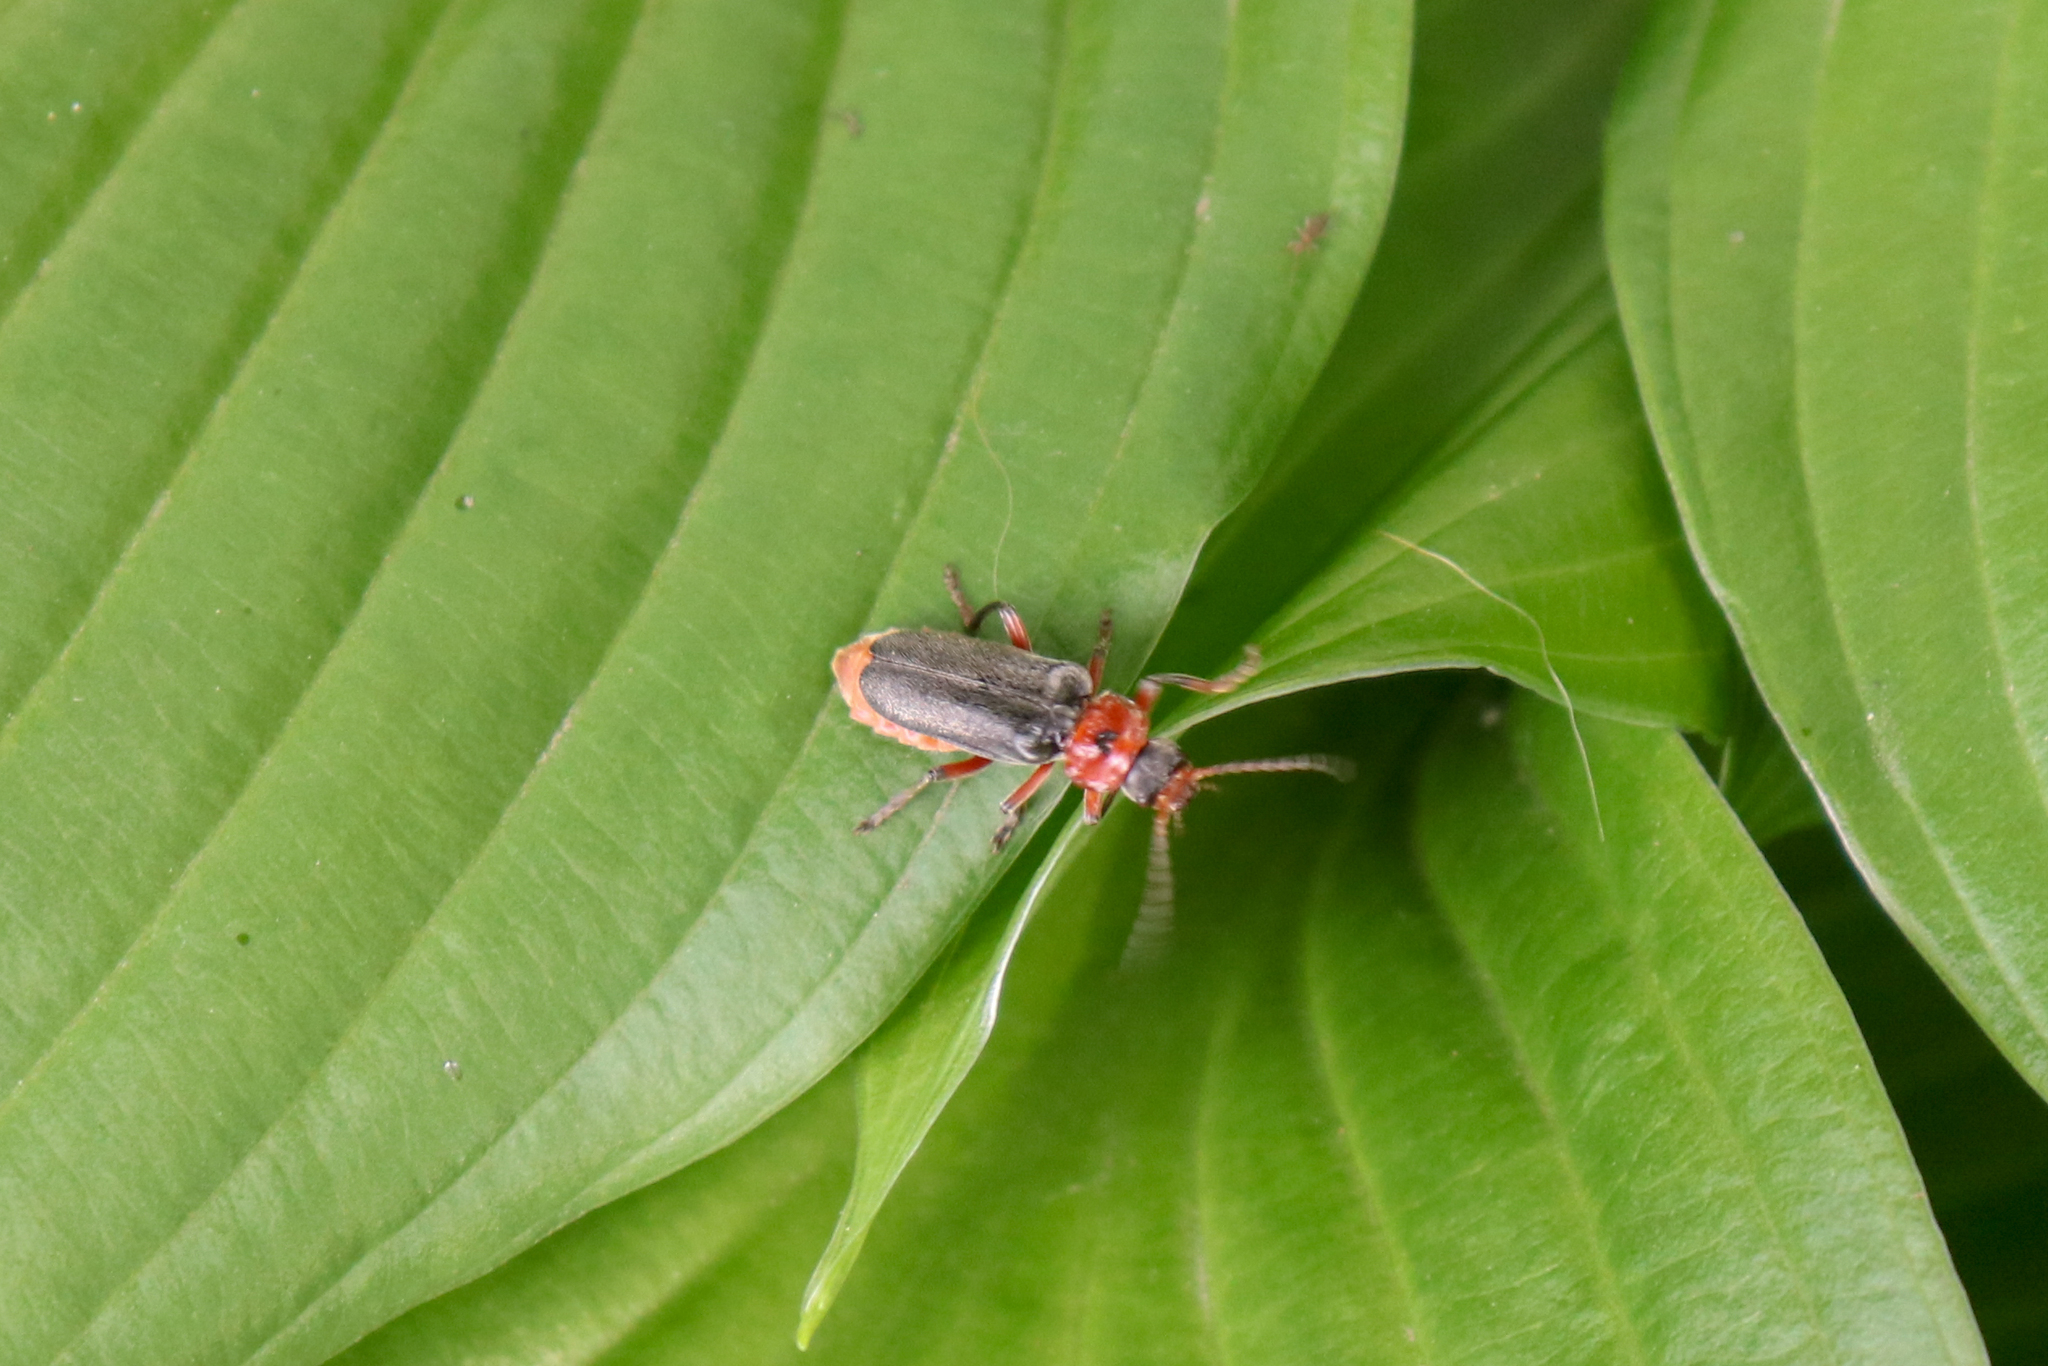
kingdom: Animalia
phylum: Arthropoda
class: Insecta
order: Coleoptera
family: Cantharidae
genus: Cantharis
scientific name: Cantharis rustica
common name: Soldier beetle
